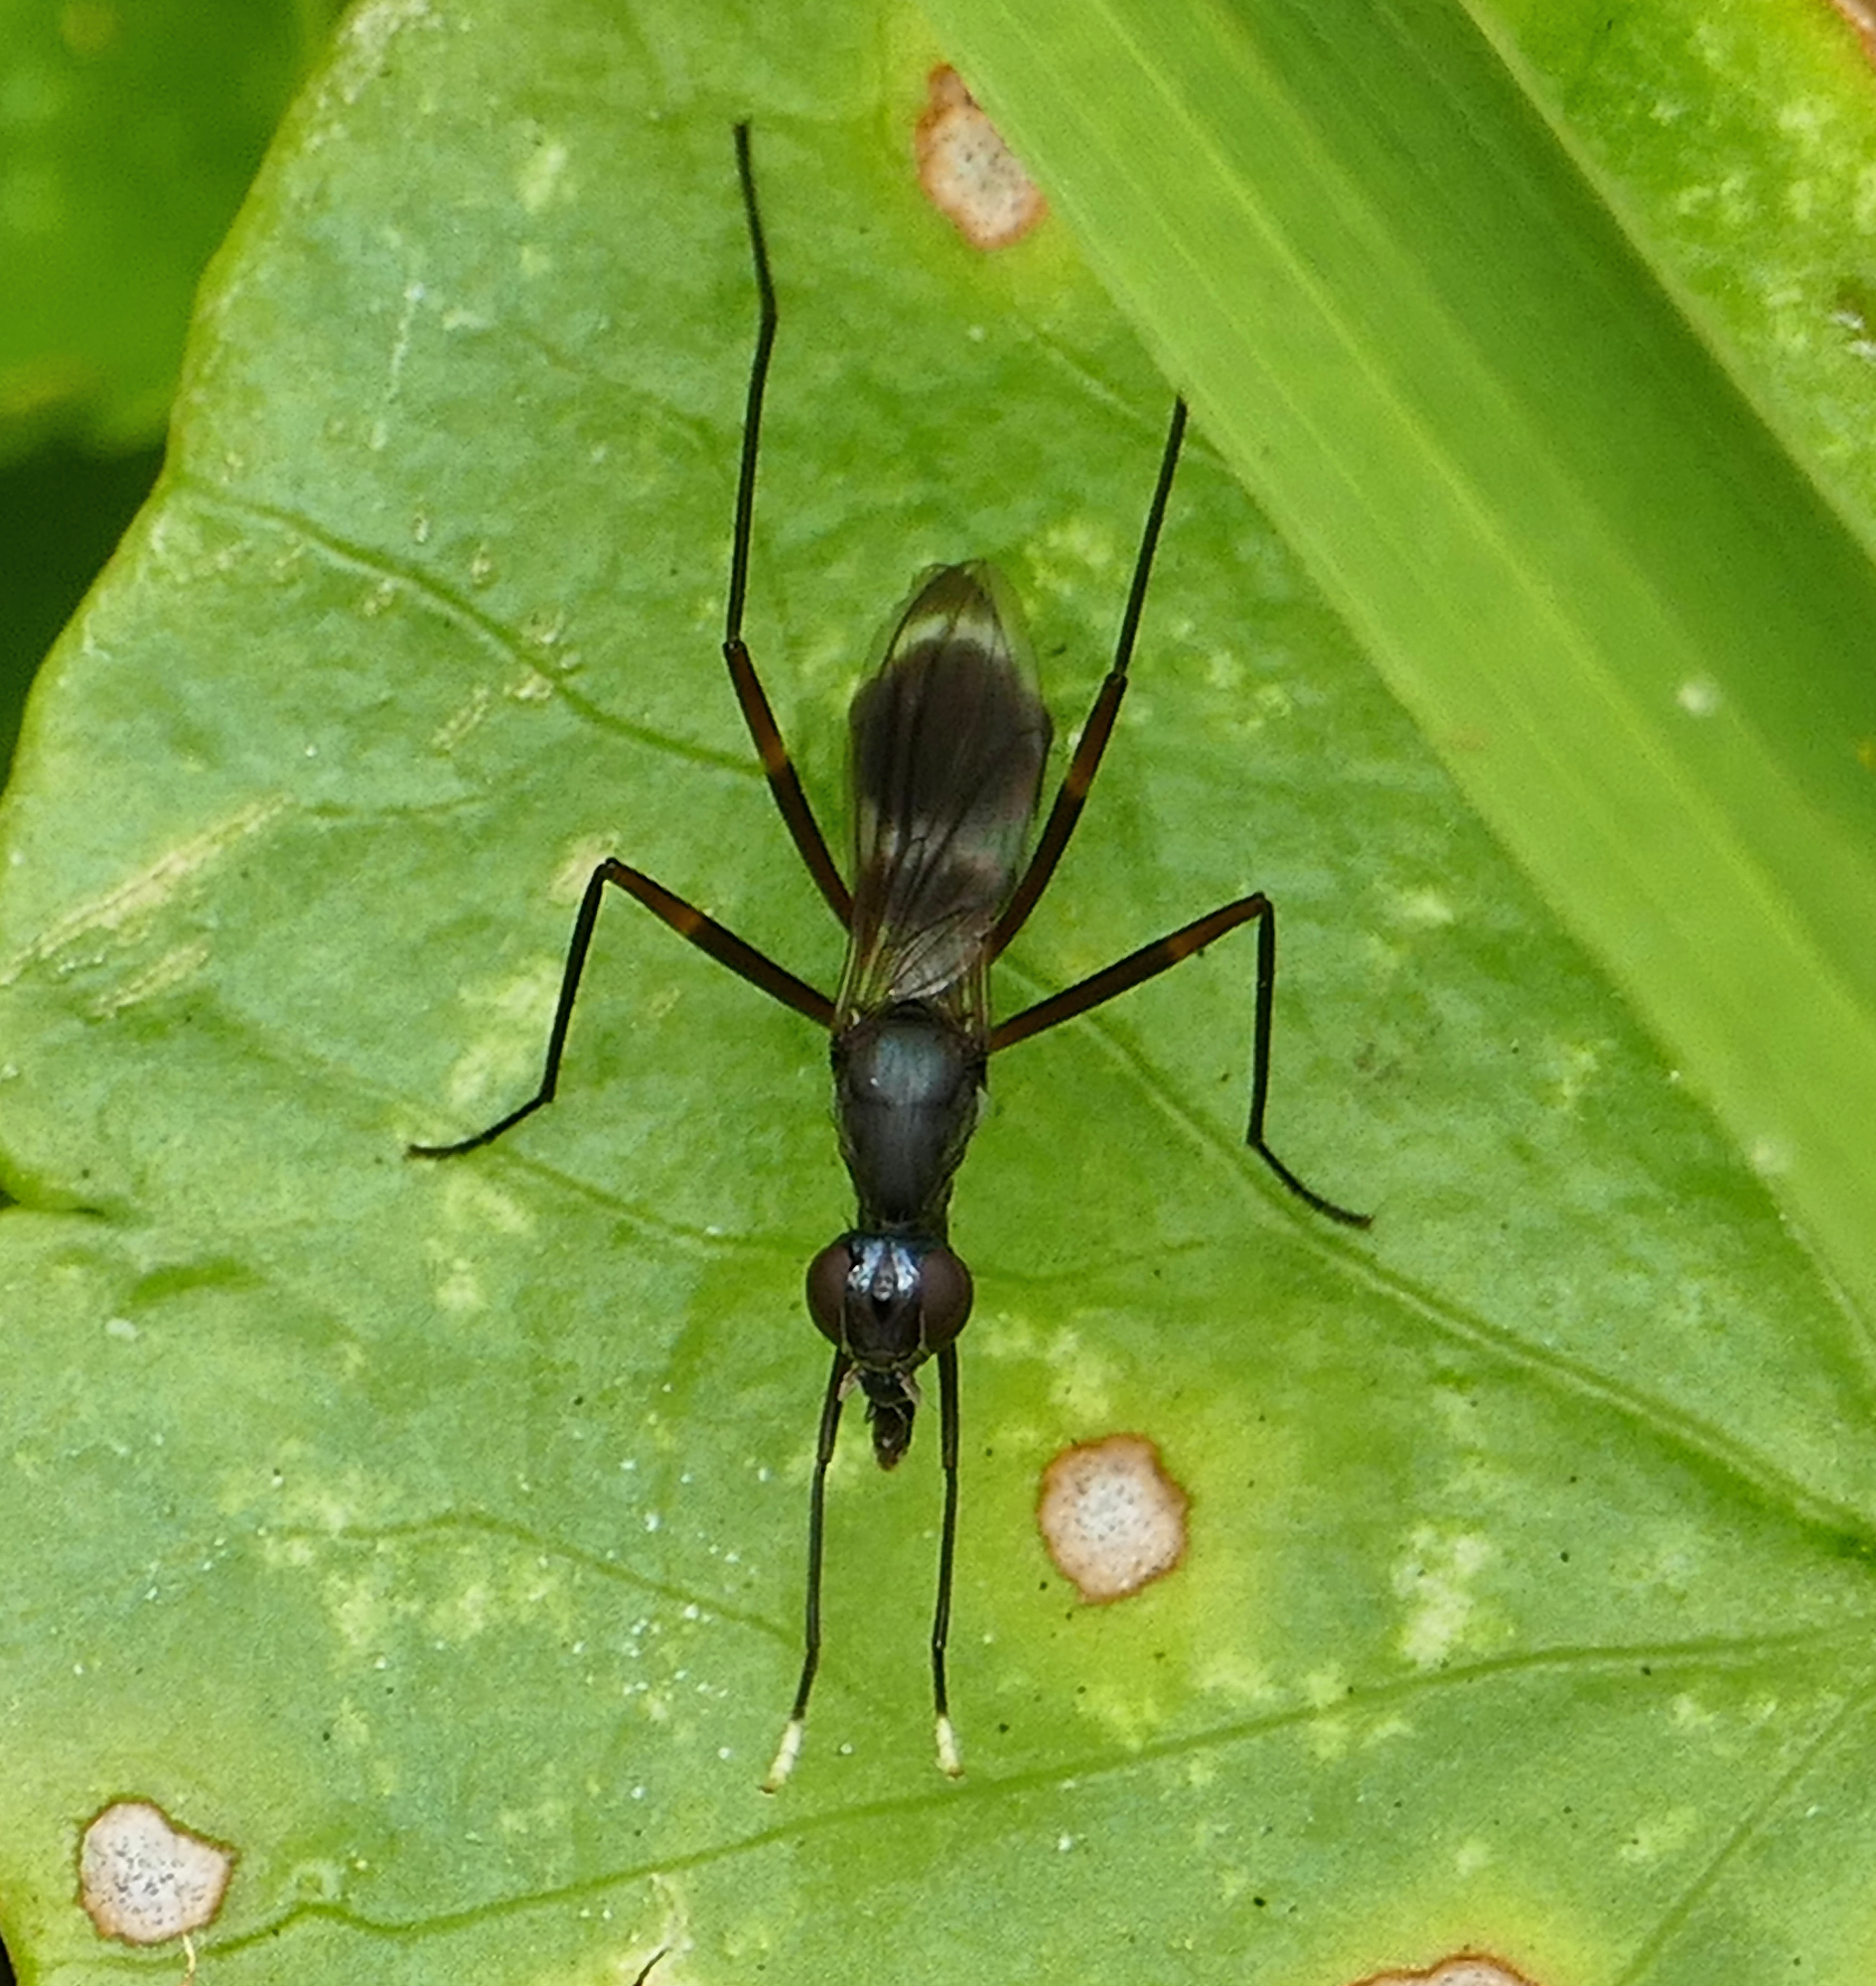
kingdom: Animalia
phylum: Arthropoda
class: Insecta
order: Diptera
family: Micropezidae
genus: Taeniaptera
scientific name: Taeniaptera trivittata
